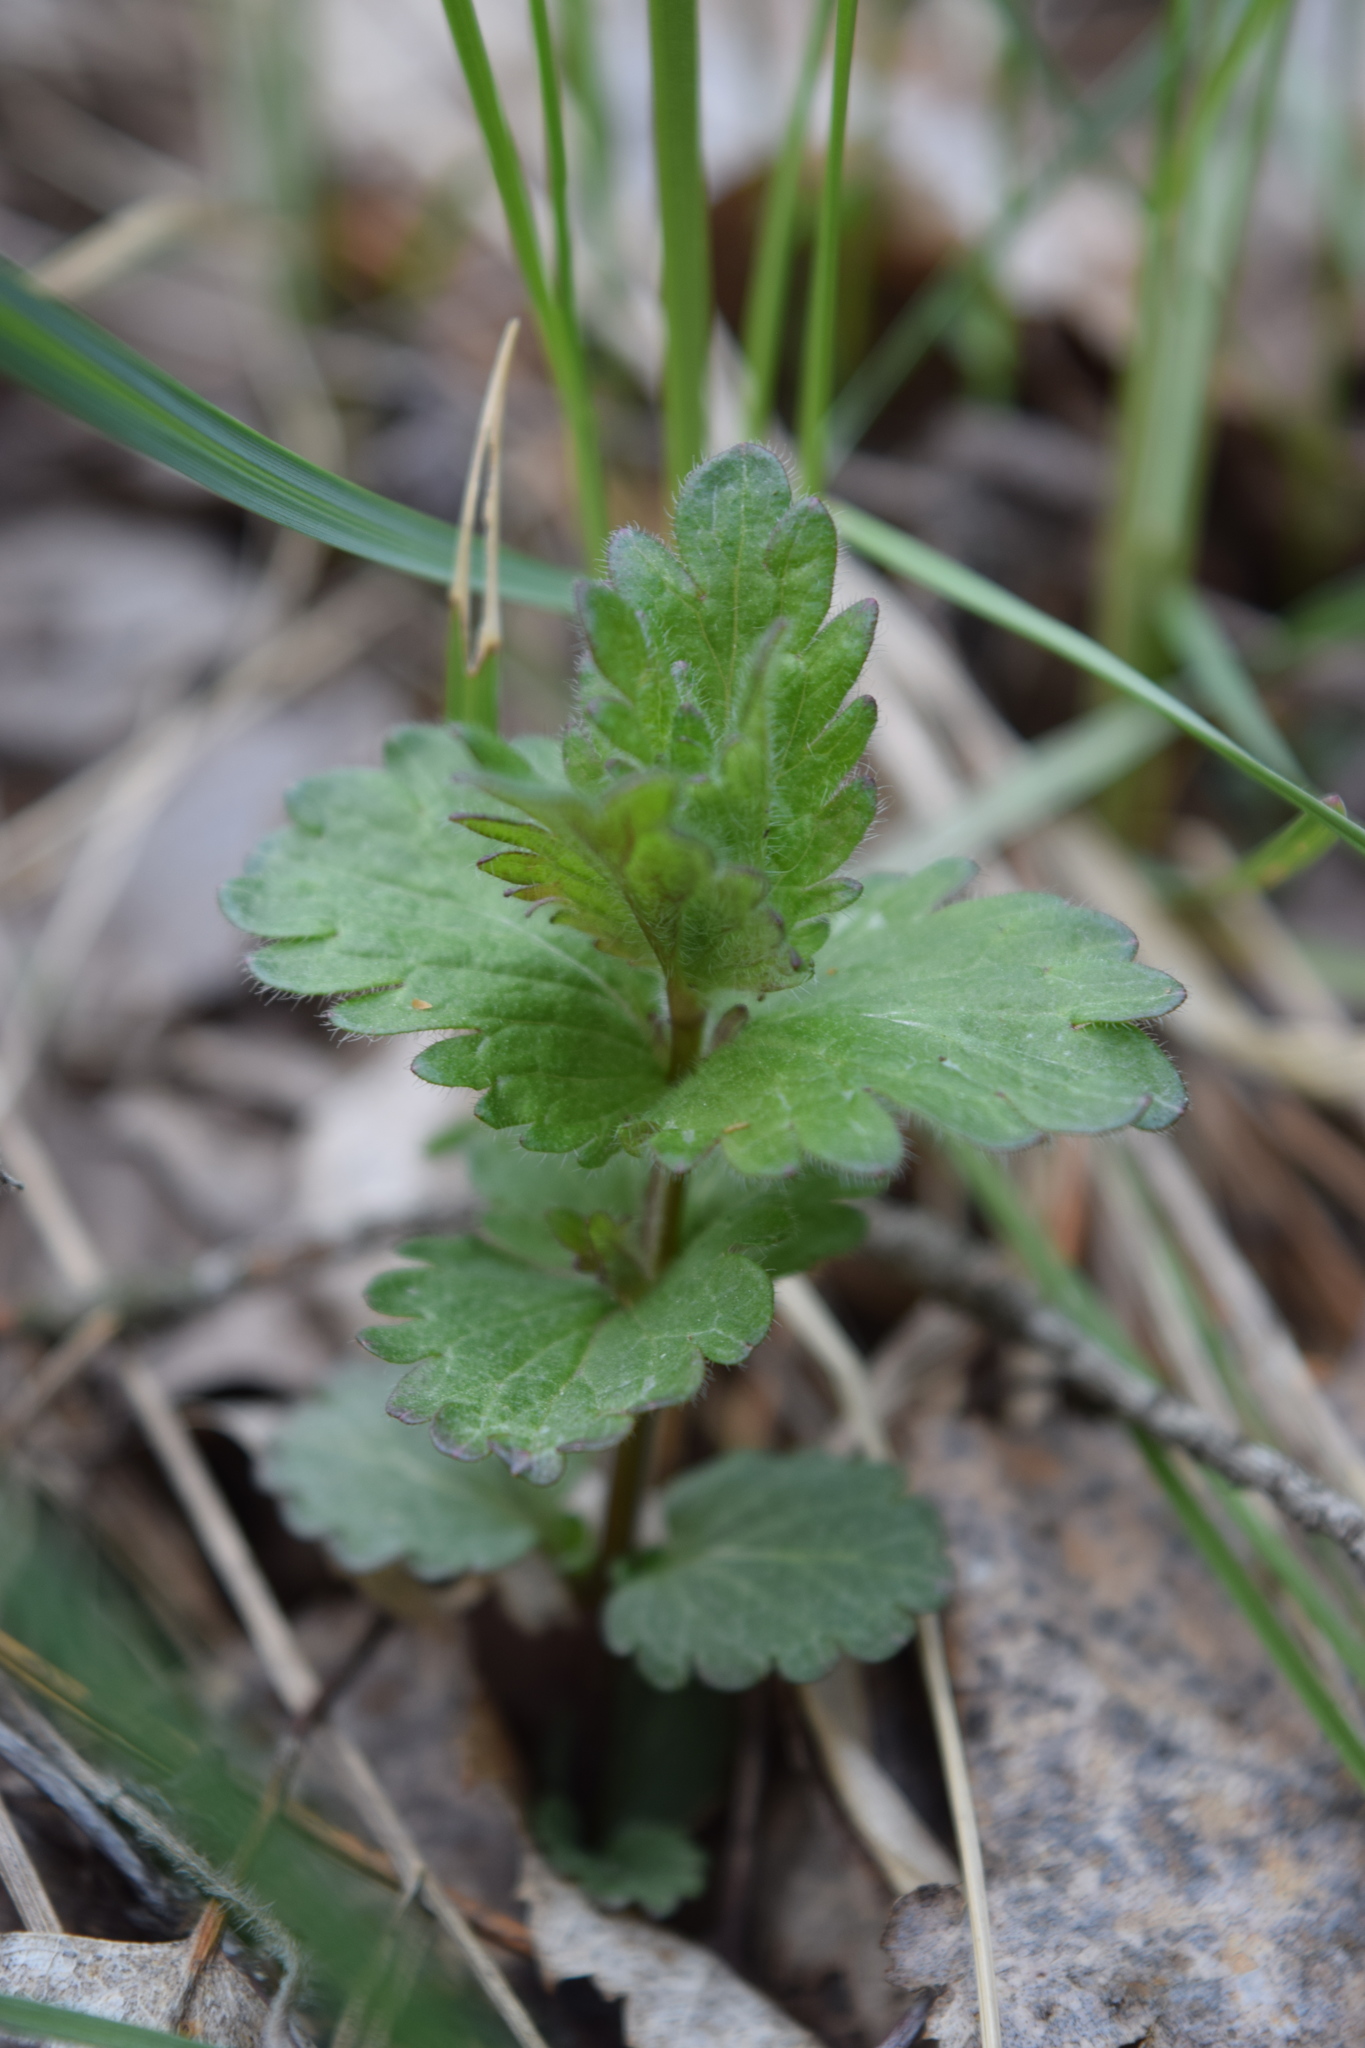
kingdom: Plantae
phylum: Tracheophyta
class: Magnoliopsida
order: Lamiales
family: Plantaginaceae
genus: Veronica
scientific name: Veronica chamaedrys
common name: Germander speedwell
